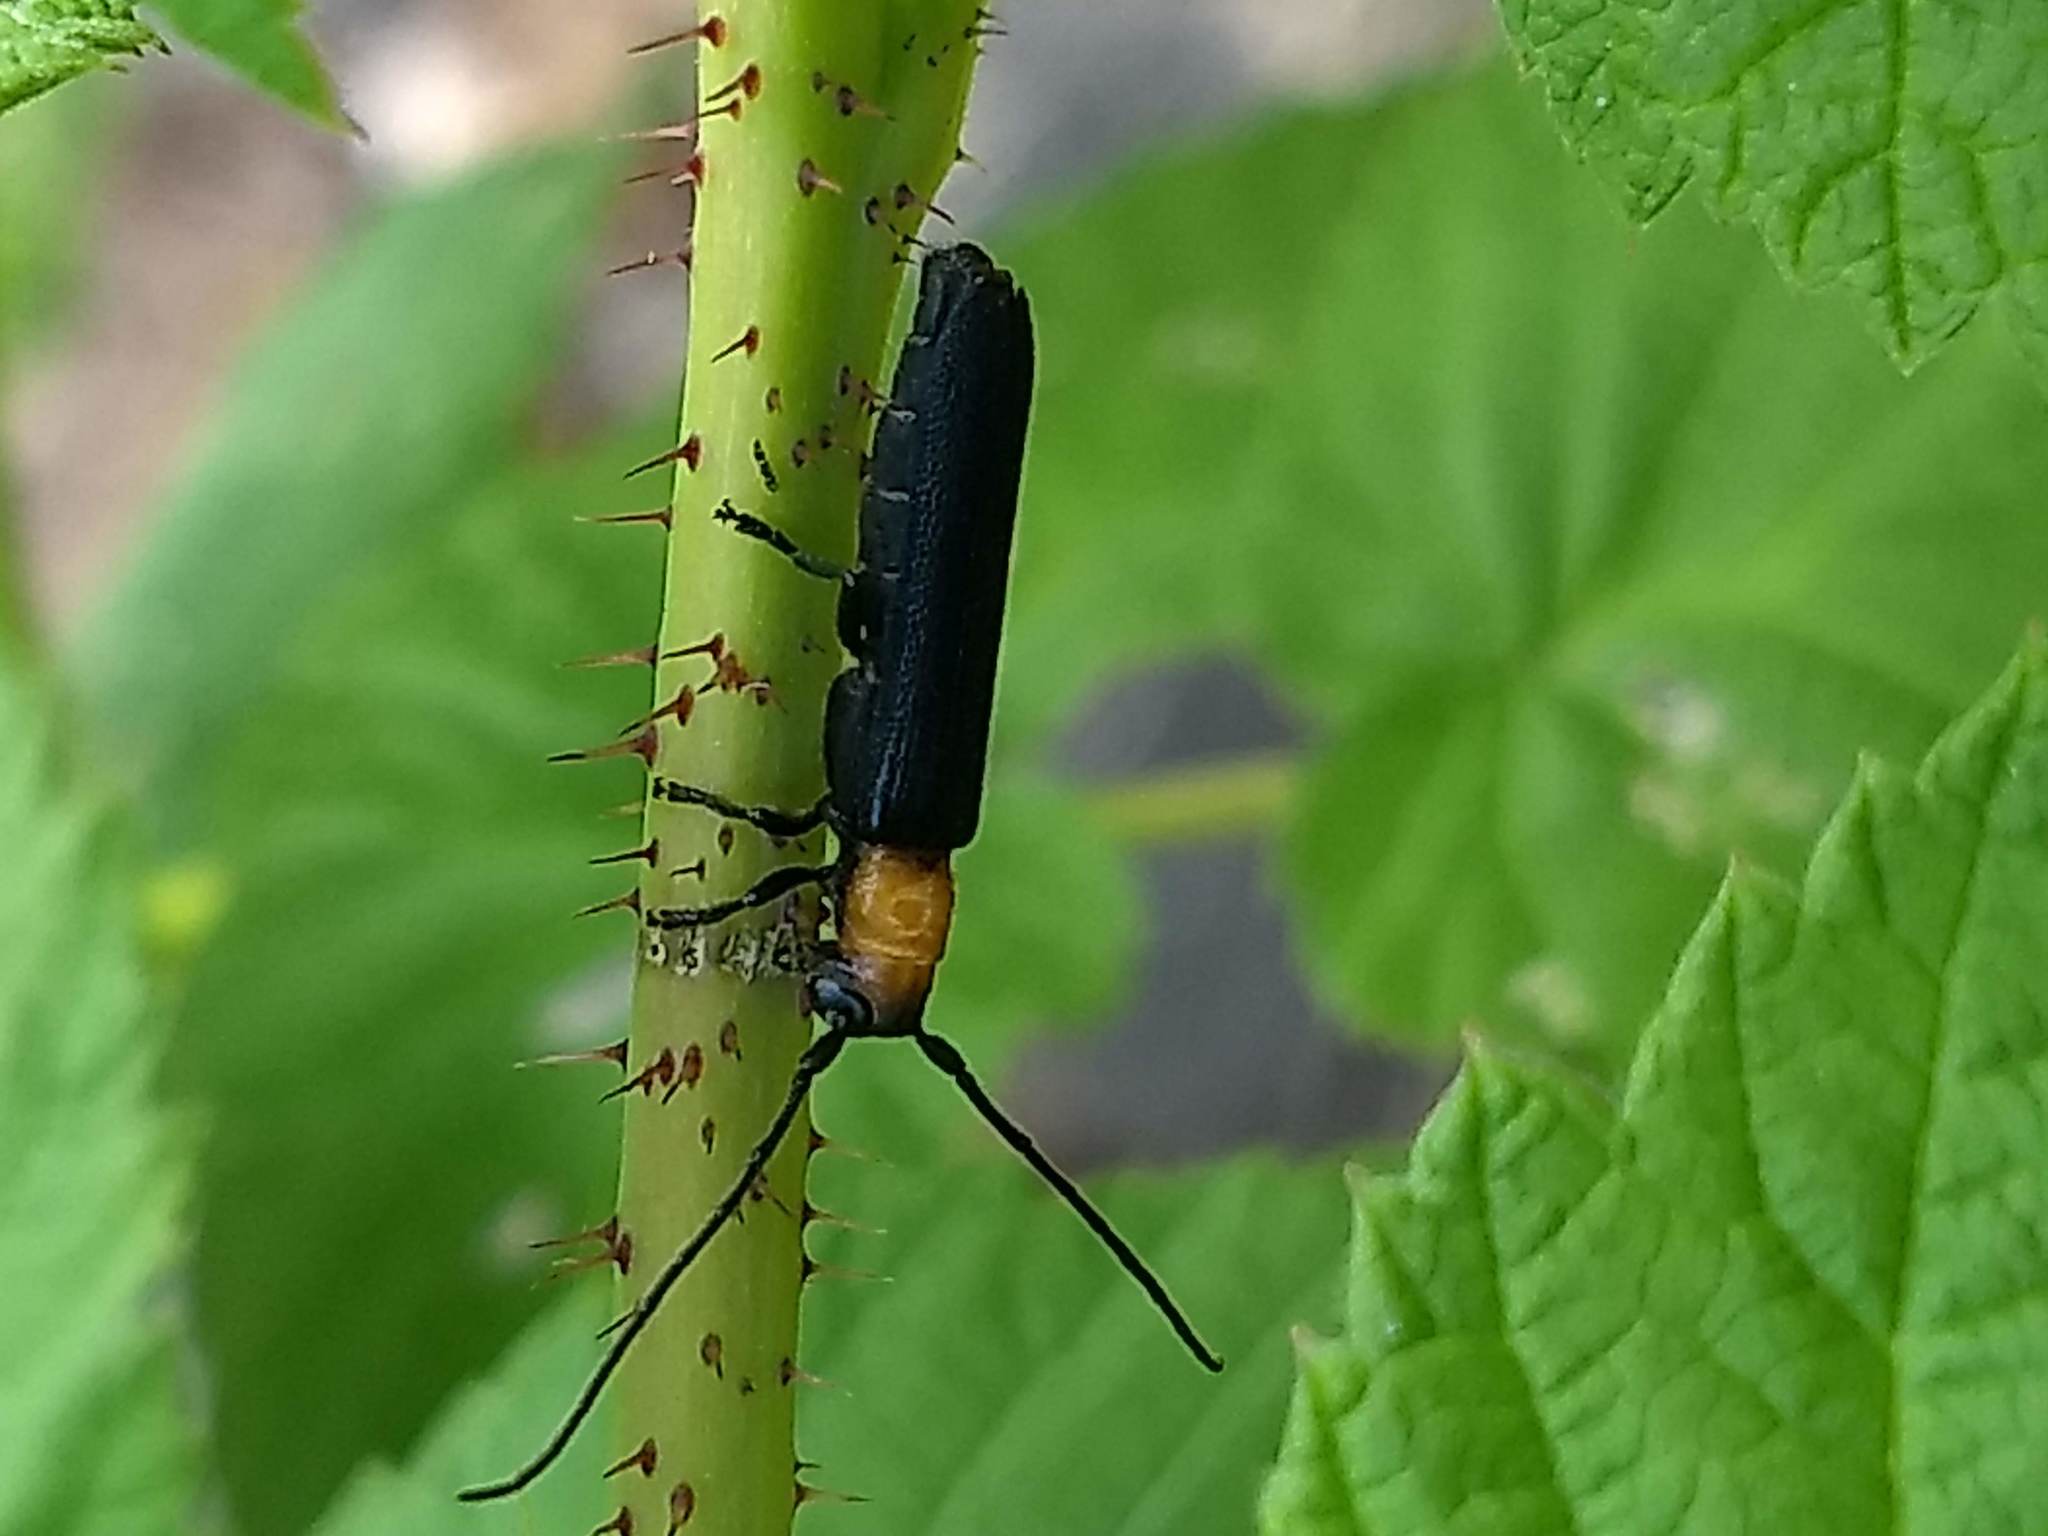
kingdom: Animalia
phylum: Arthropoda
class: Insecta
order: Coleoptera
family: Cerambycidae
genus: Oberea
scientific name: Oberea affinis
